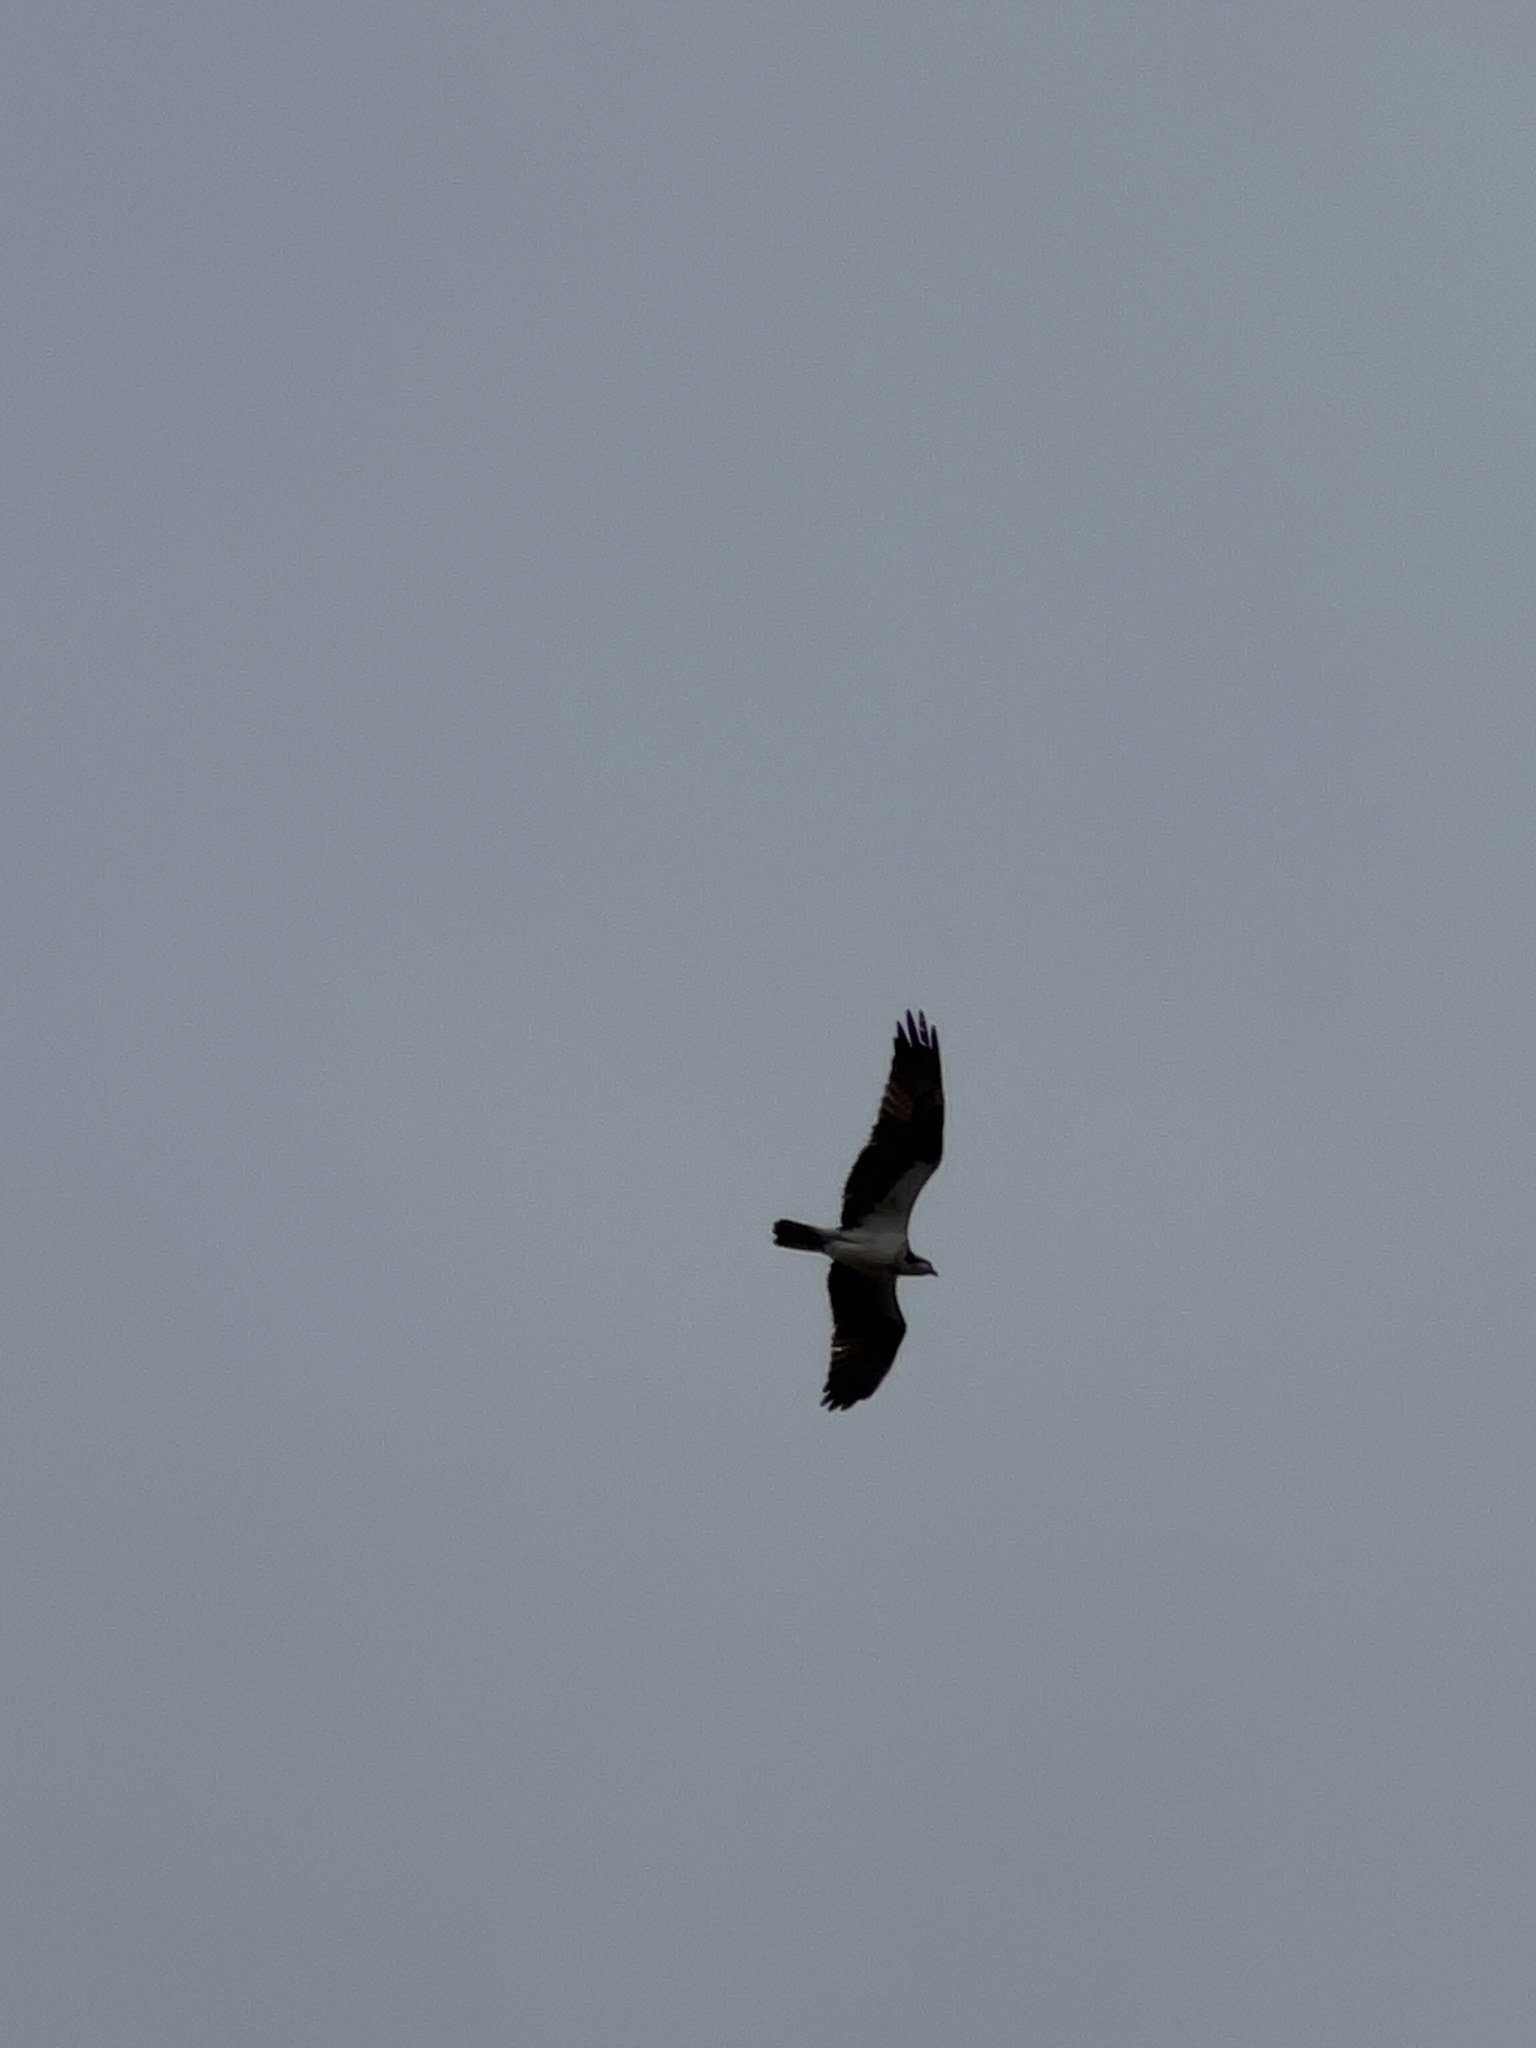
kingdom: Animalia
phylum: Chordata
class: Aves
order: Accipitriformes
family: Pandionidae
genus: Pandion
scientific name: Pandion haliaetus
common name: Osprey
